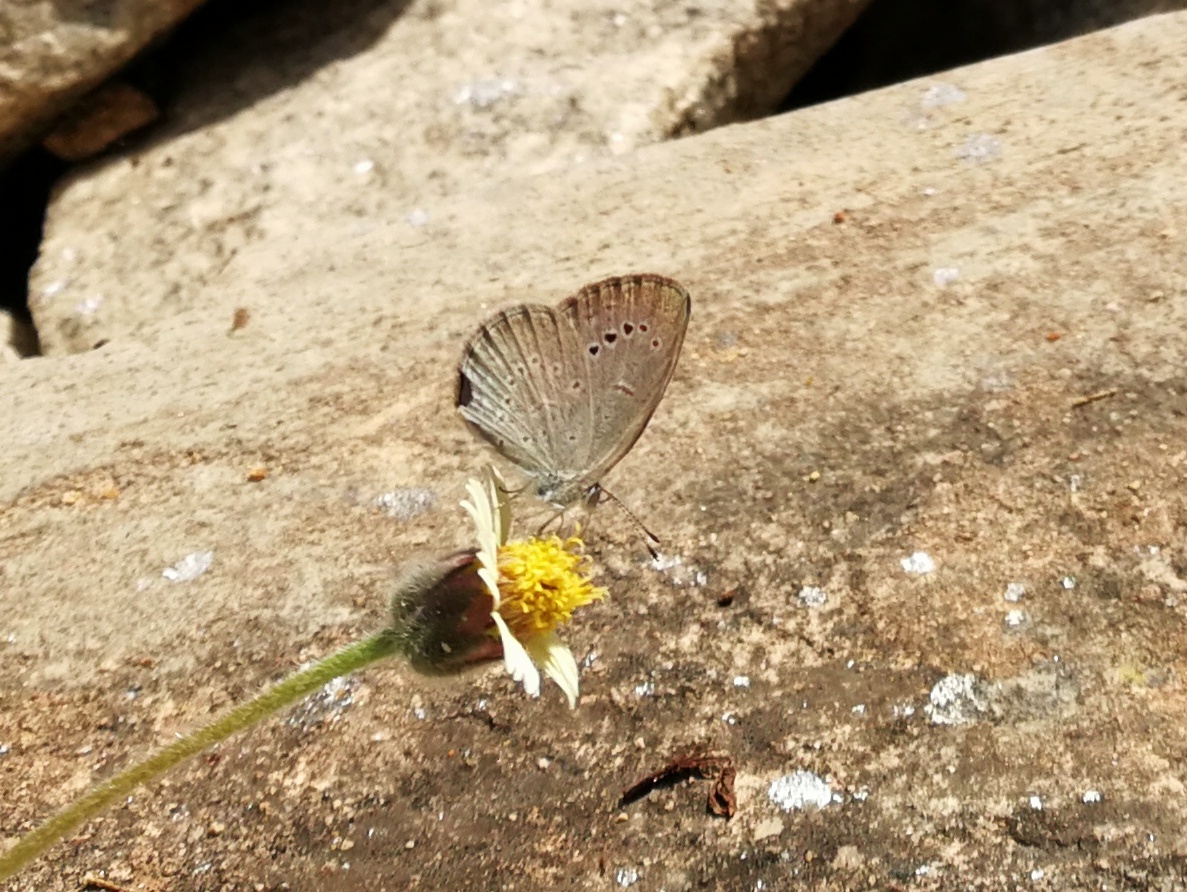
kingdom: Animalia
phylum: Arthropoda
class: Insecta
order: Lepidoptera
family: Lycaenidae
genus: Pseudozizeeria
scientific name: Pseudozizeeria maha
